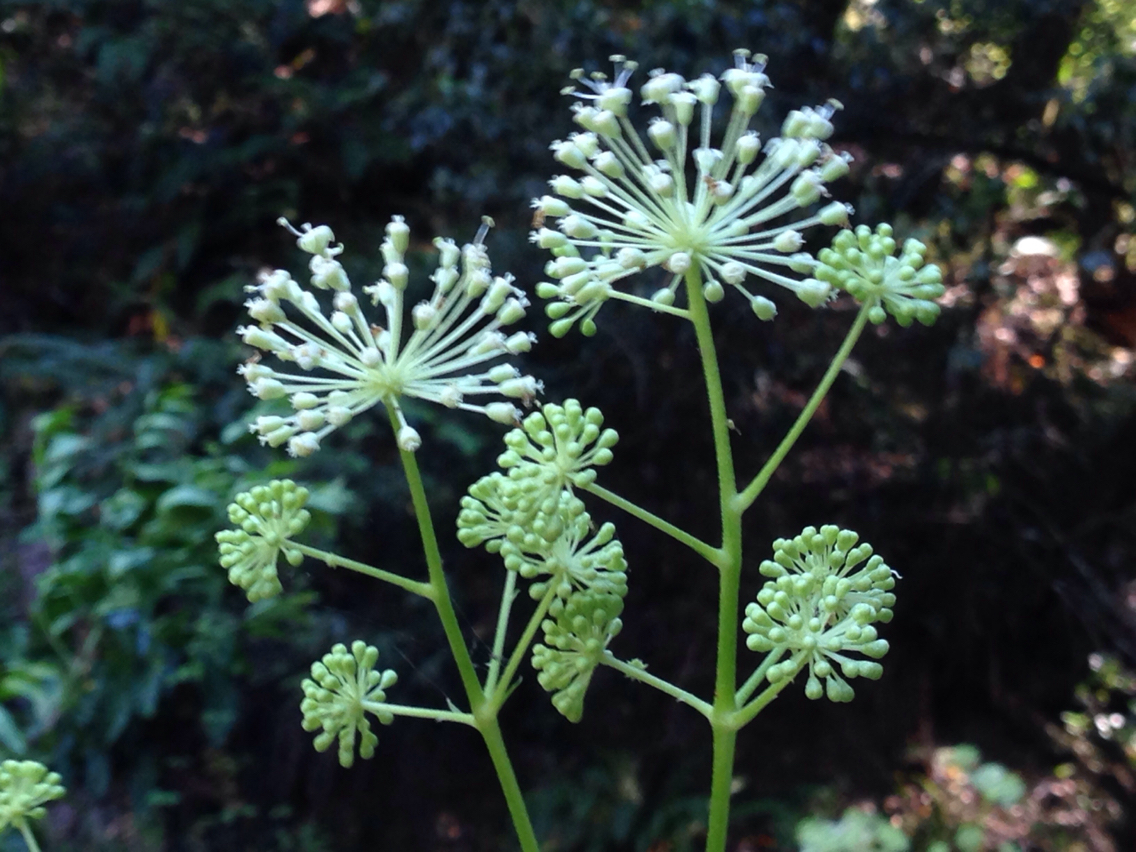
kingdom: Plantae
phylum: Tracheophyta
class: Magnoliopsida
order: Apiales
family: Araliaceae
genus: Aralia
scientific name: Aralia californica
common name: California-ginseng
